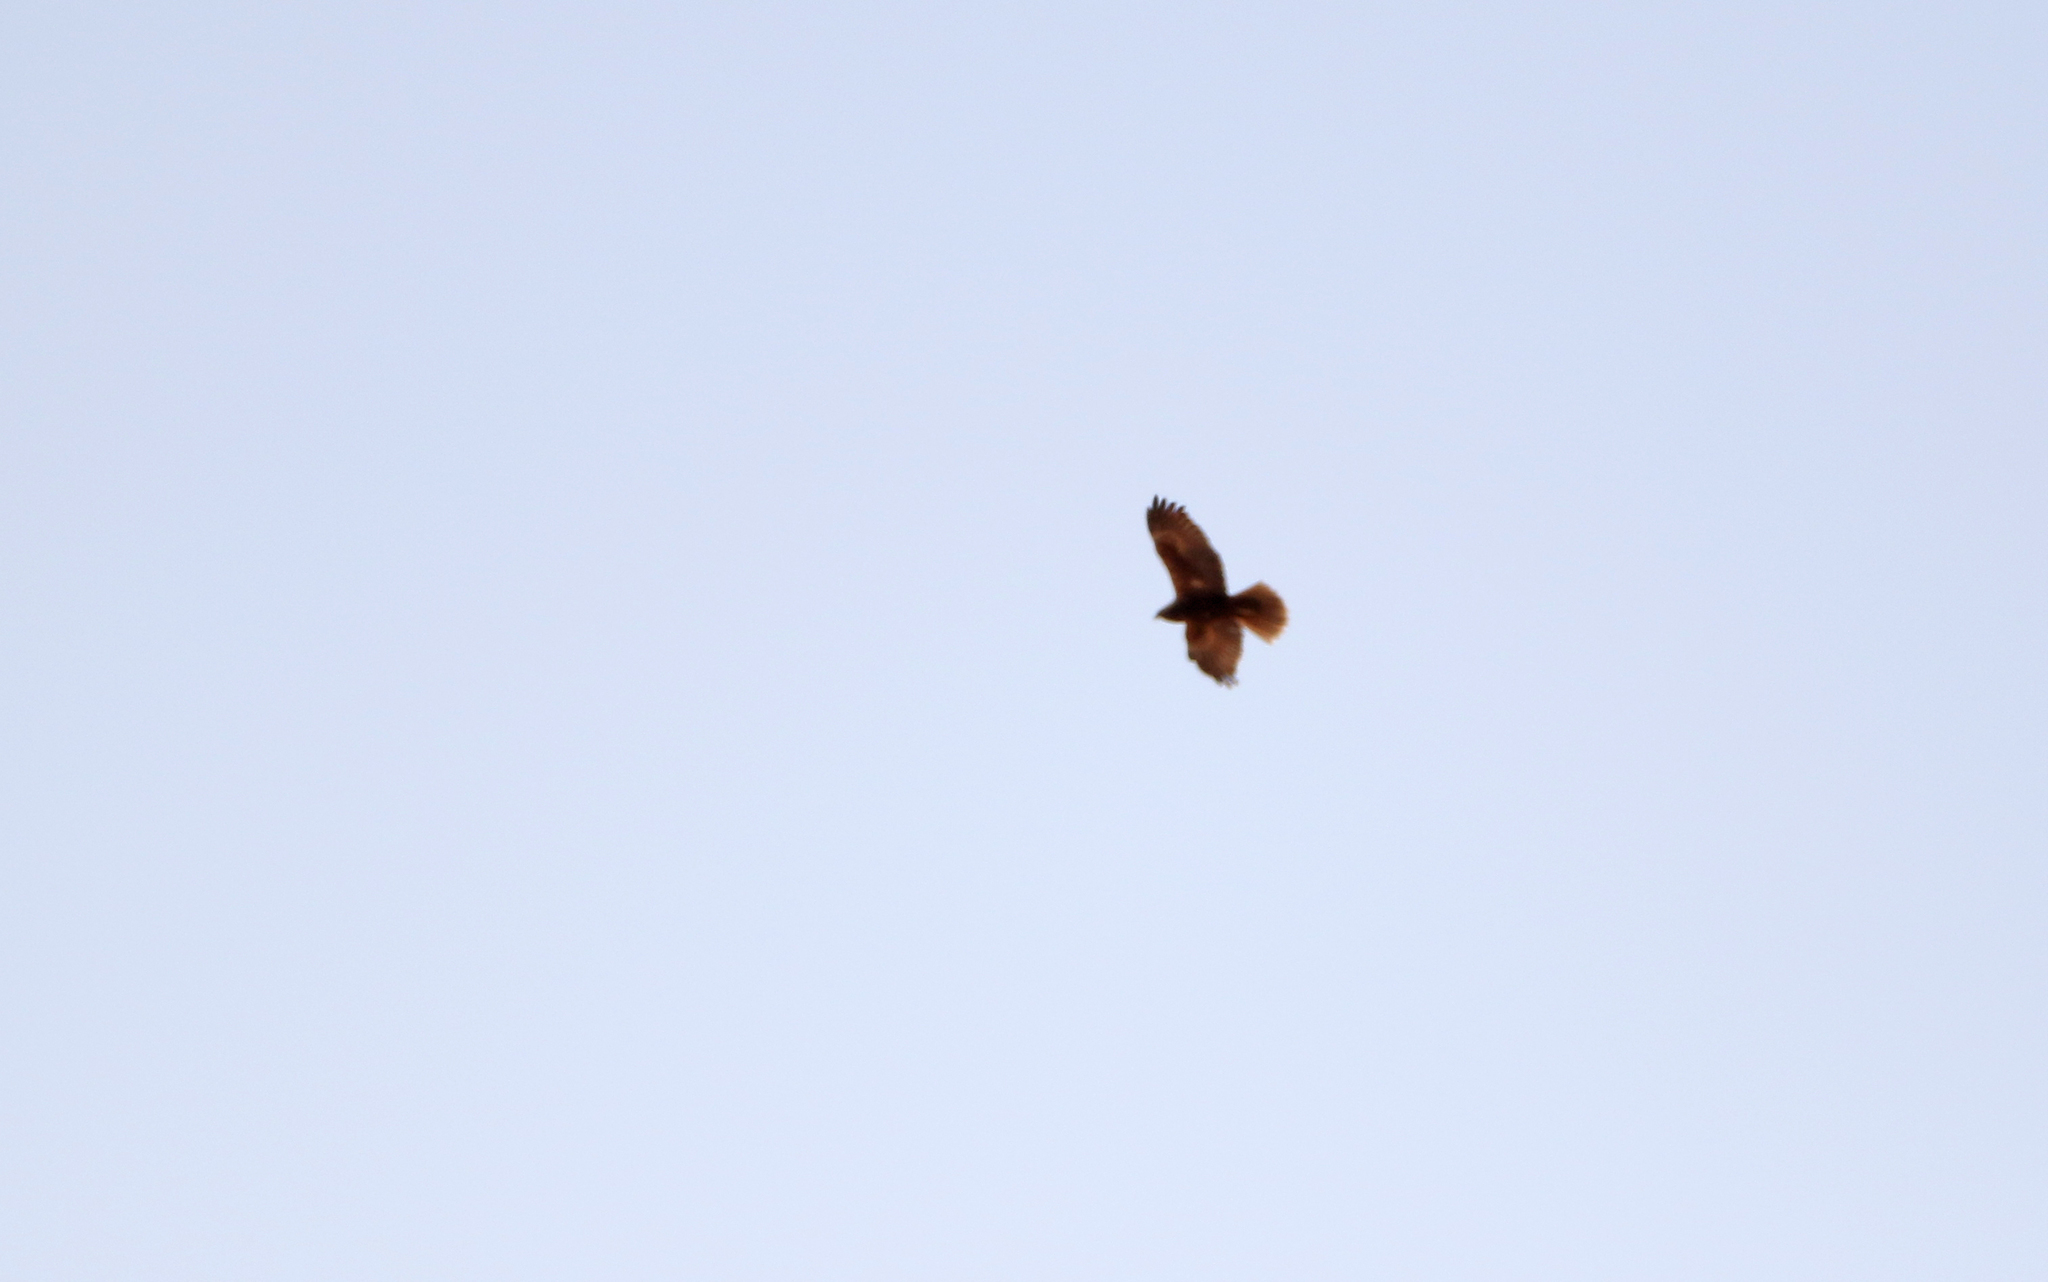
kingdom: Animalia
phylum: Chordata
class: Aves
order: Accipitriformes
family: Accipitridae
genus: Circus
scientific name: Circus aeruginosus
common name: Western marsh harrier
